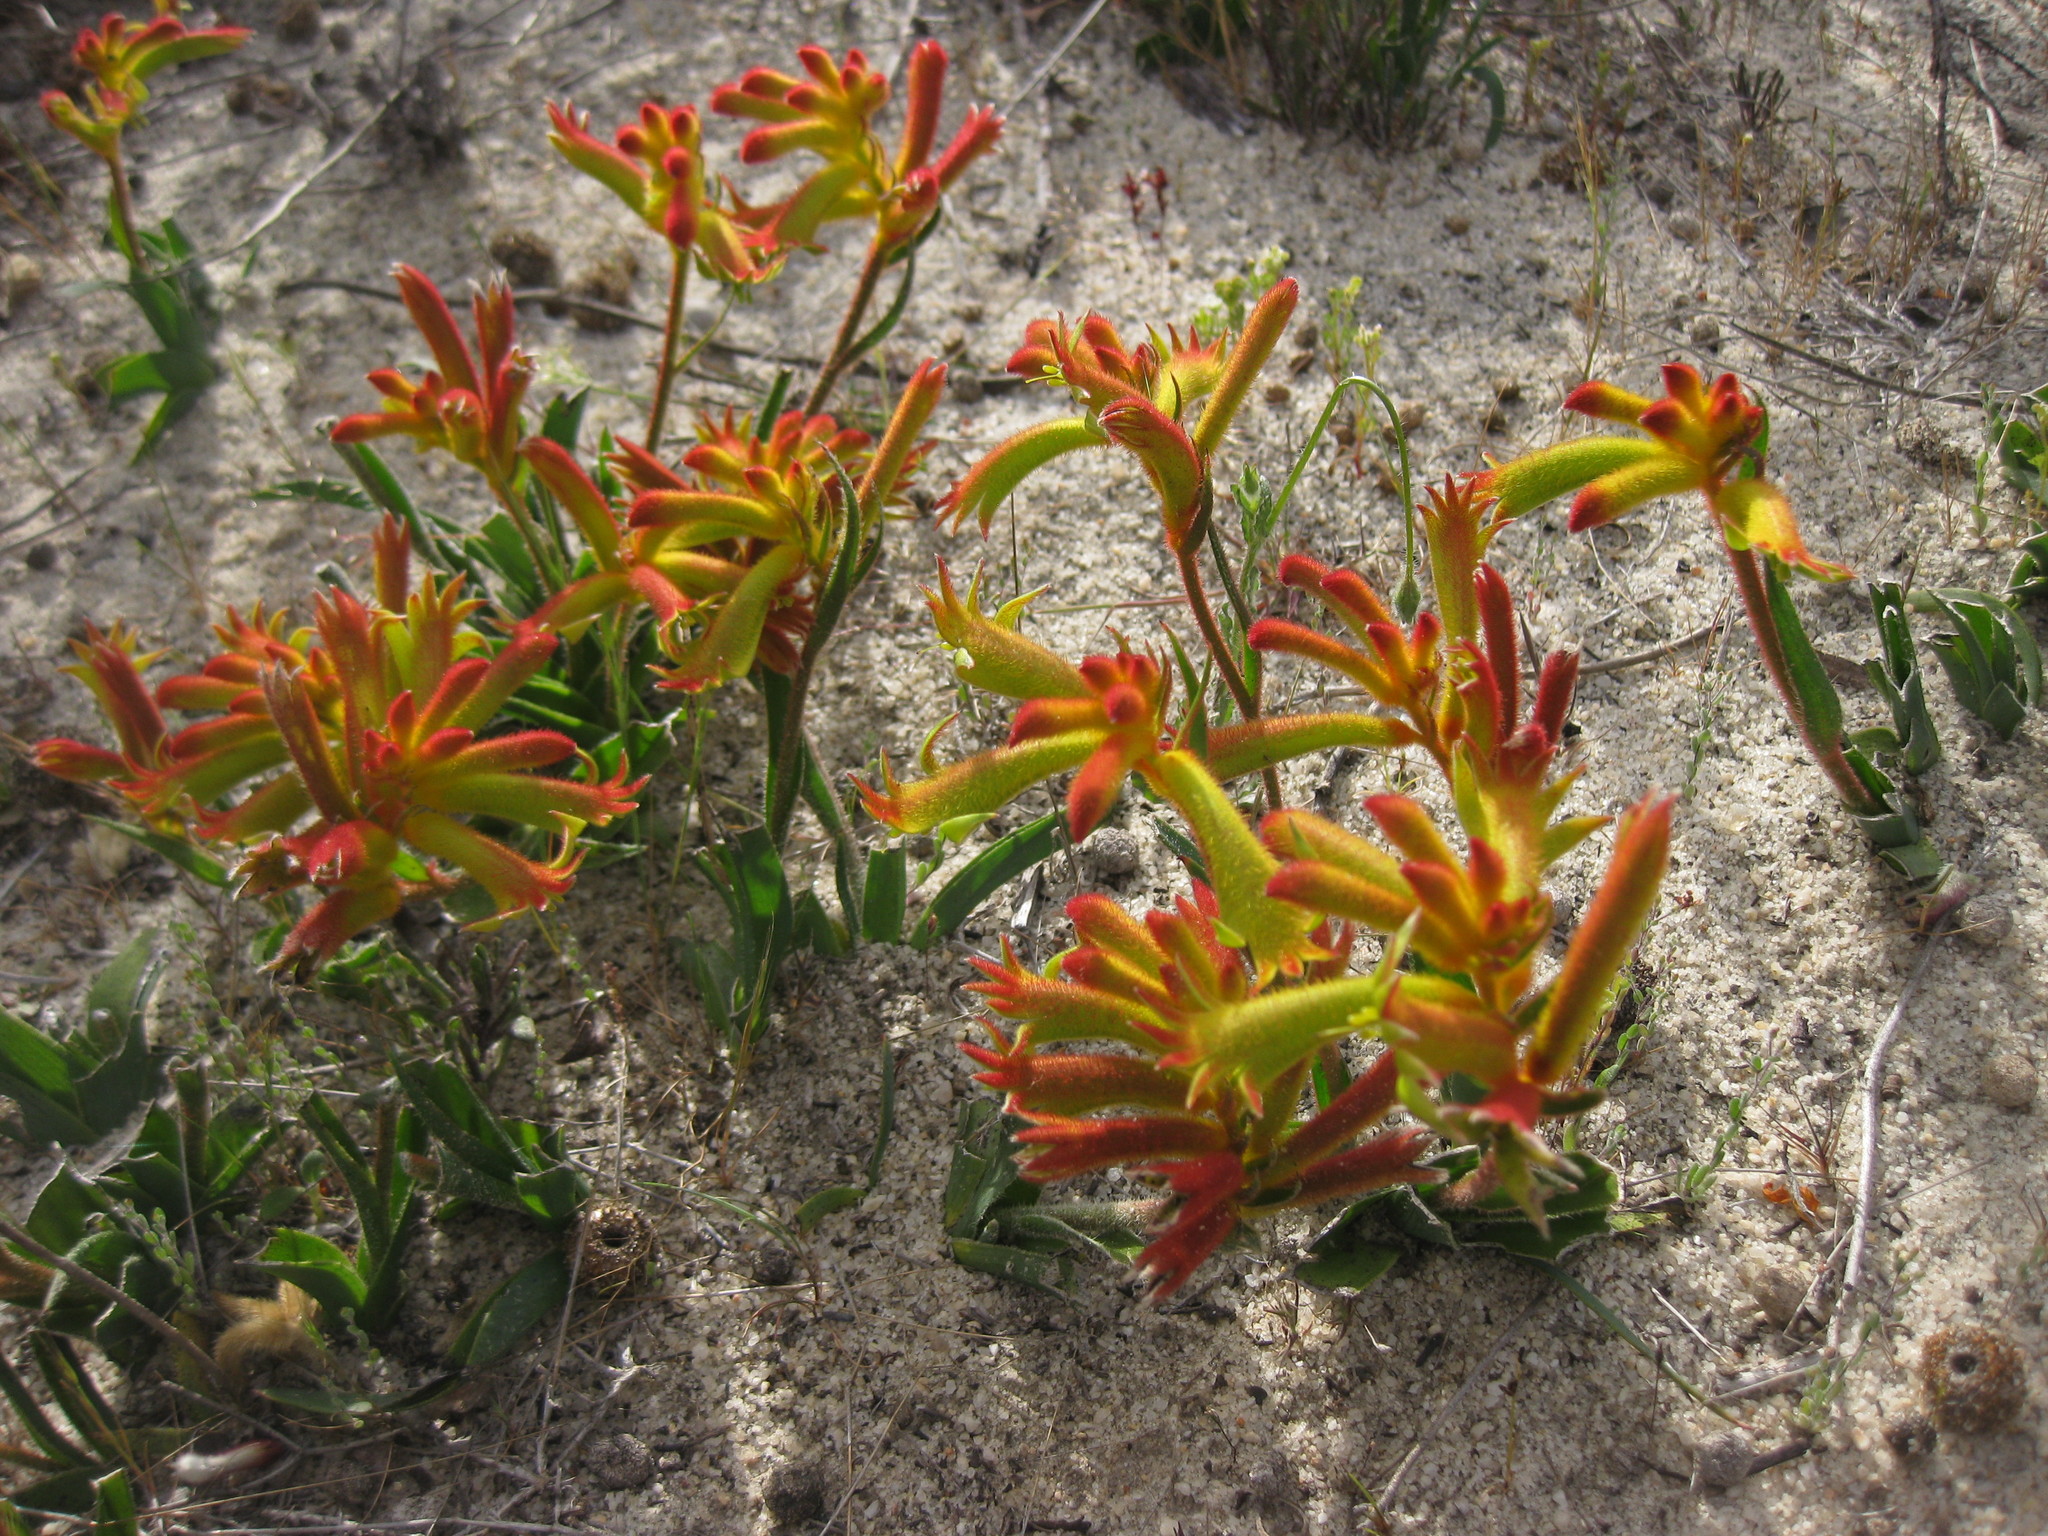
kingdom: Plantae
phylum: Tracheophyta
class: Liliopsida
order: Commelinales
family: Haemodoraceae
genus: Anigozanthos
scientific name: Anigozanthos humilis
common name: Cat's-paw
